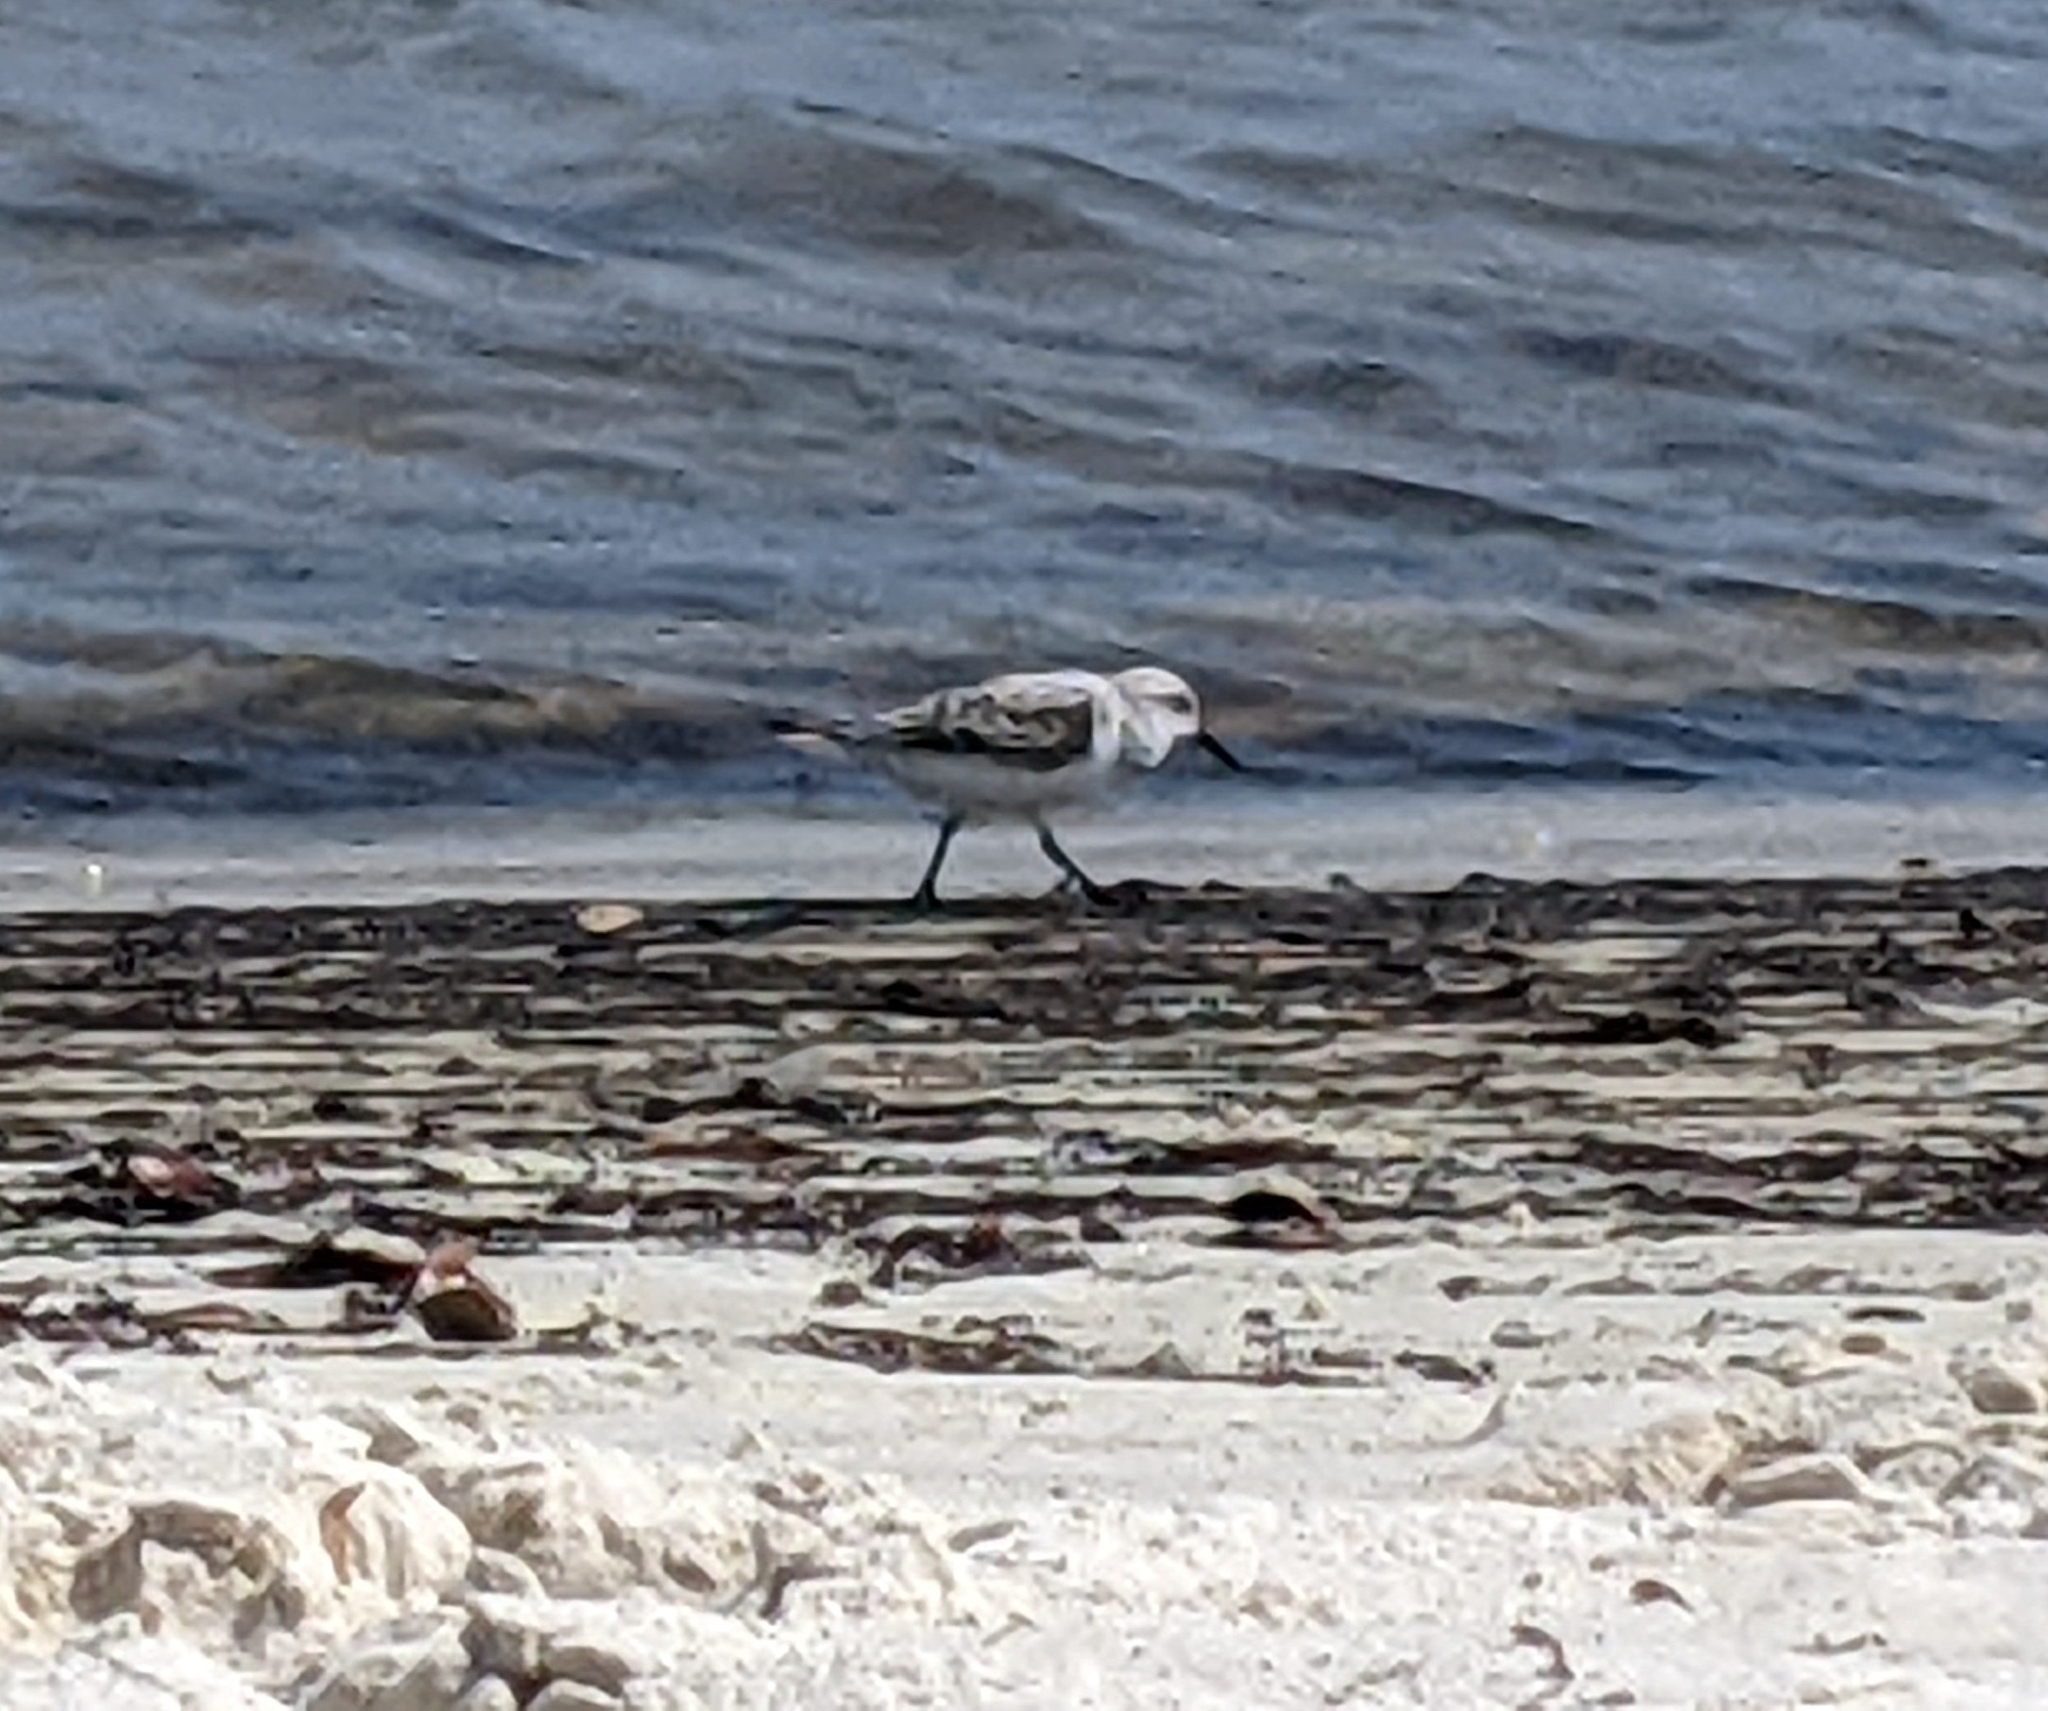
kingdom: Animalia
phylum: Chordata
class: Aves
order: Charadriiformes
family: Scolopacidae
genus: Calidris
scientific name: Calidris alba
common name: Sanderling
